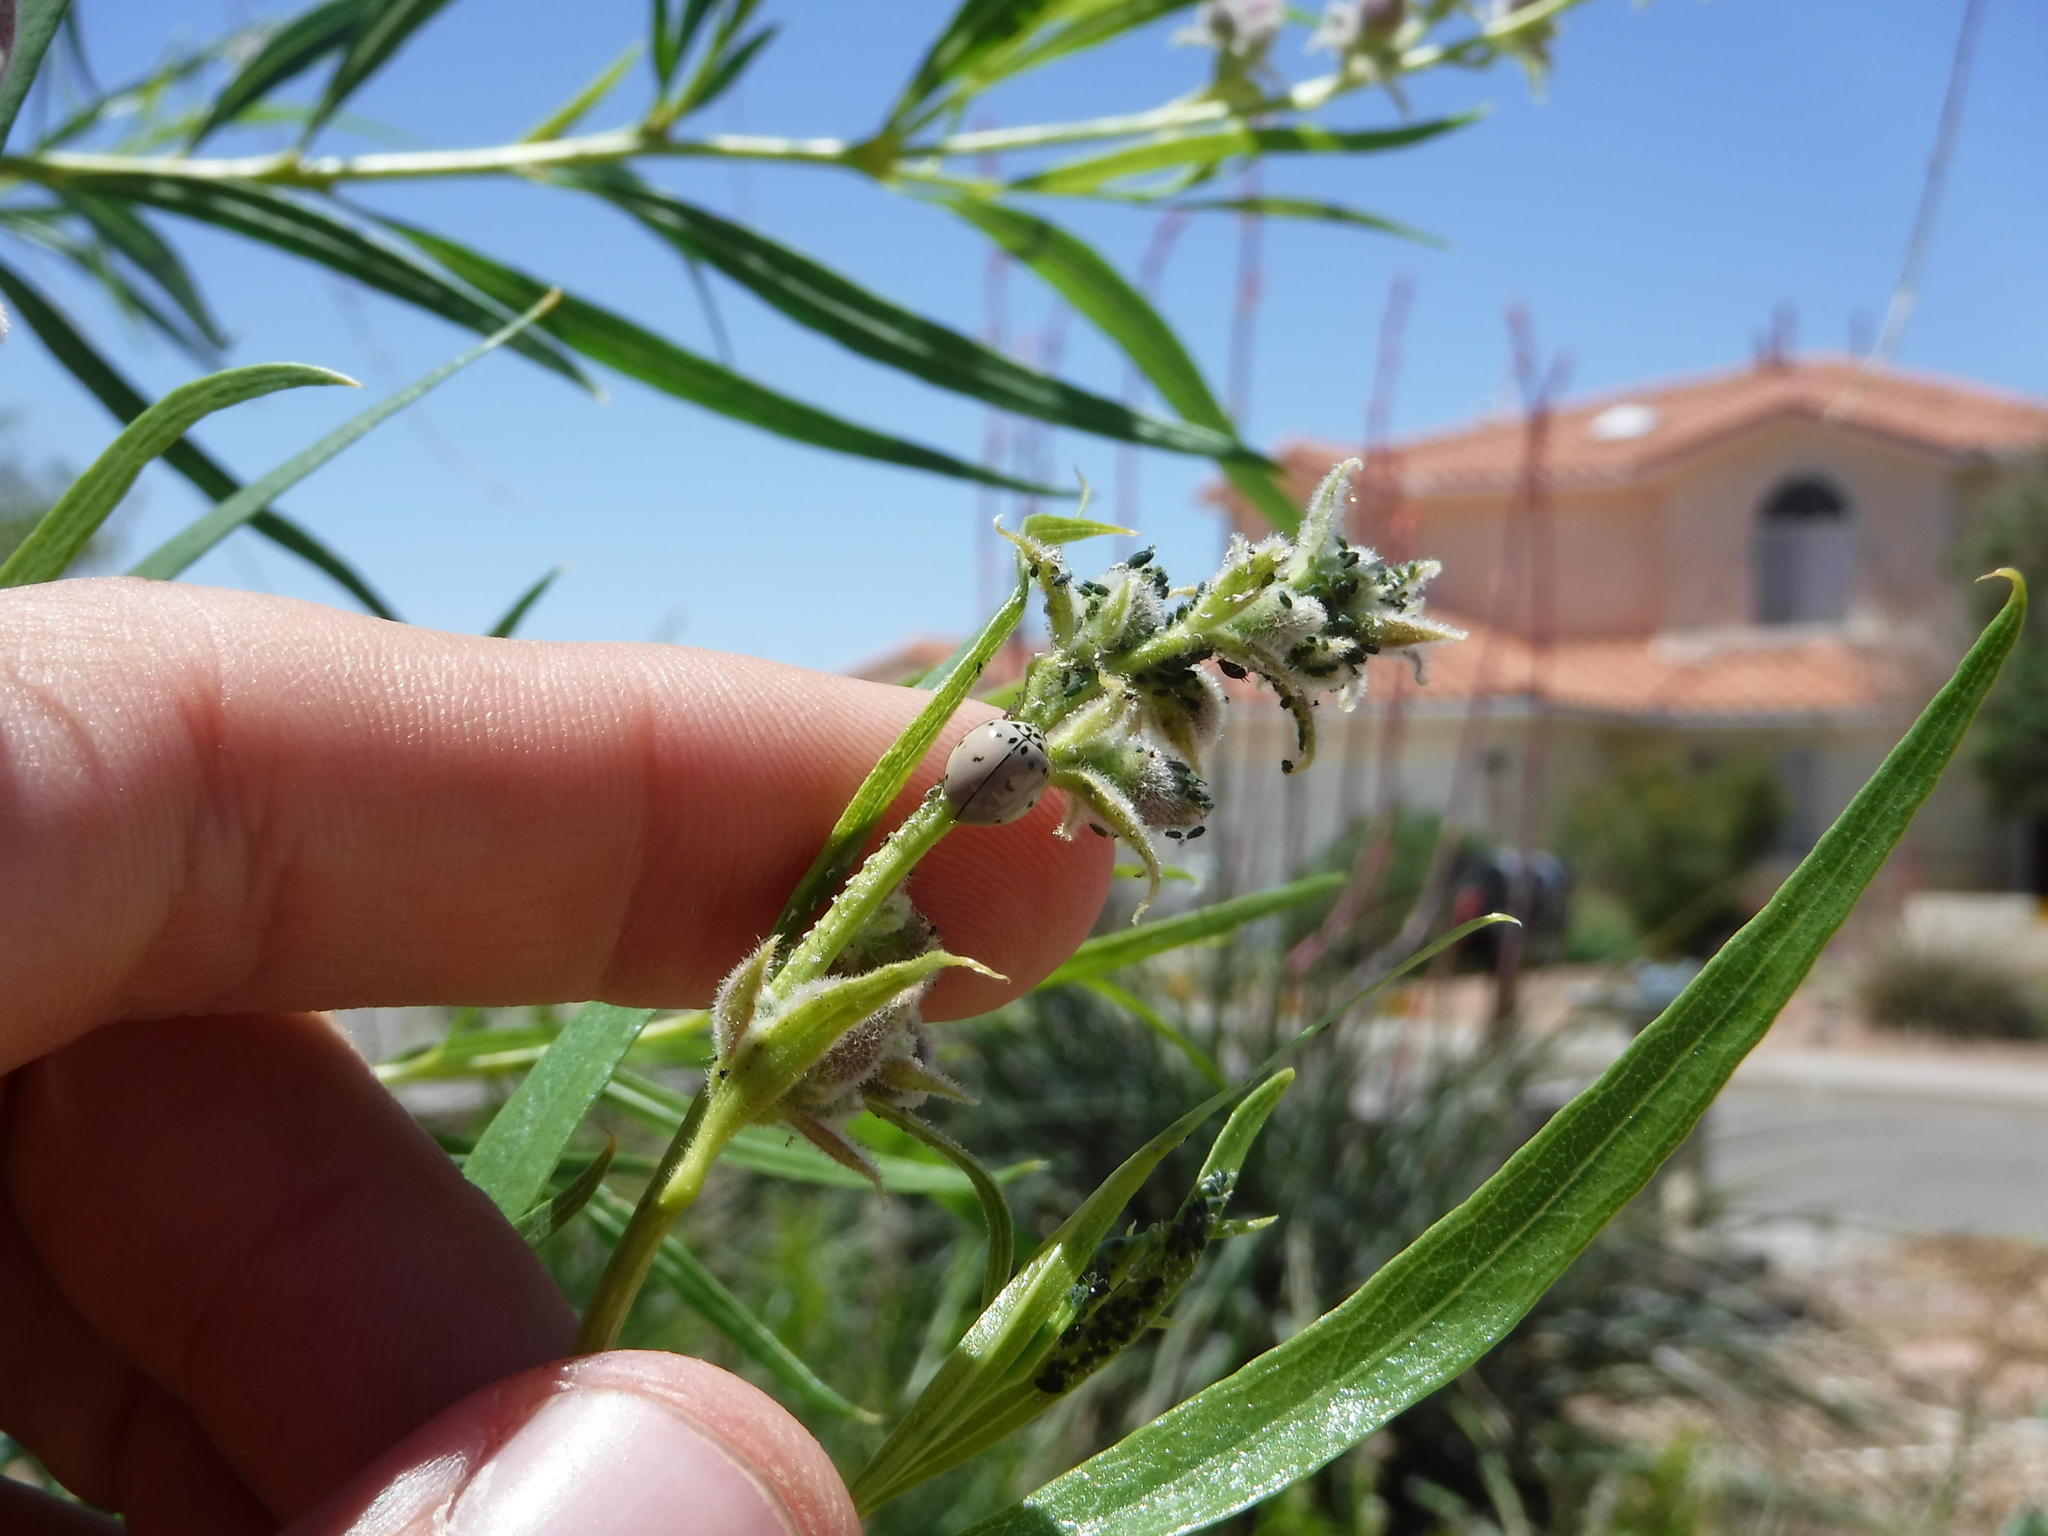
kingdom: Animalia
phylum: Arthropoda
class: Insecta
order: Coleoptera
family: Coccinellidae
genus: Olla
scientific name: Olla v-nigrum
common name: Ashy gray lady beetle
